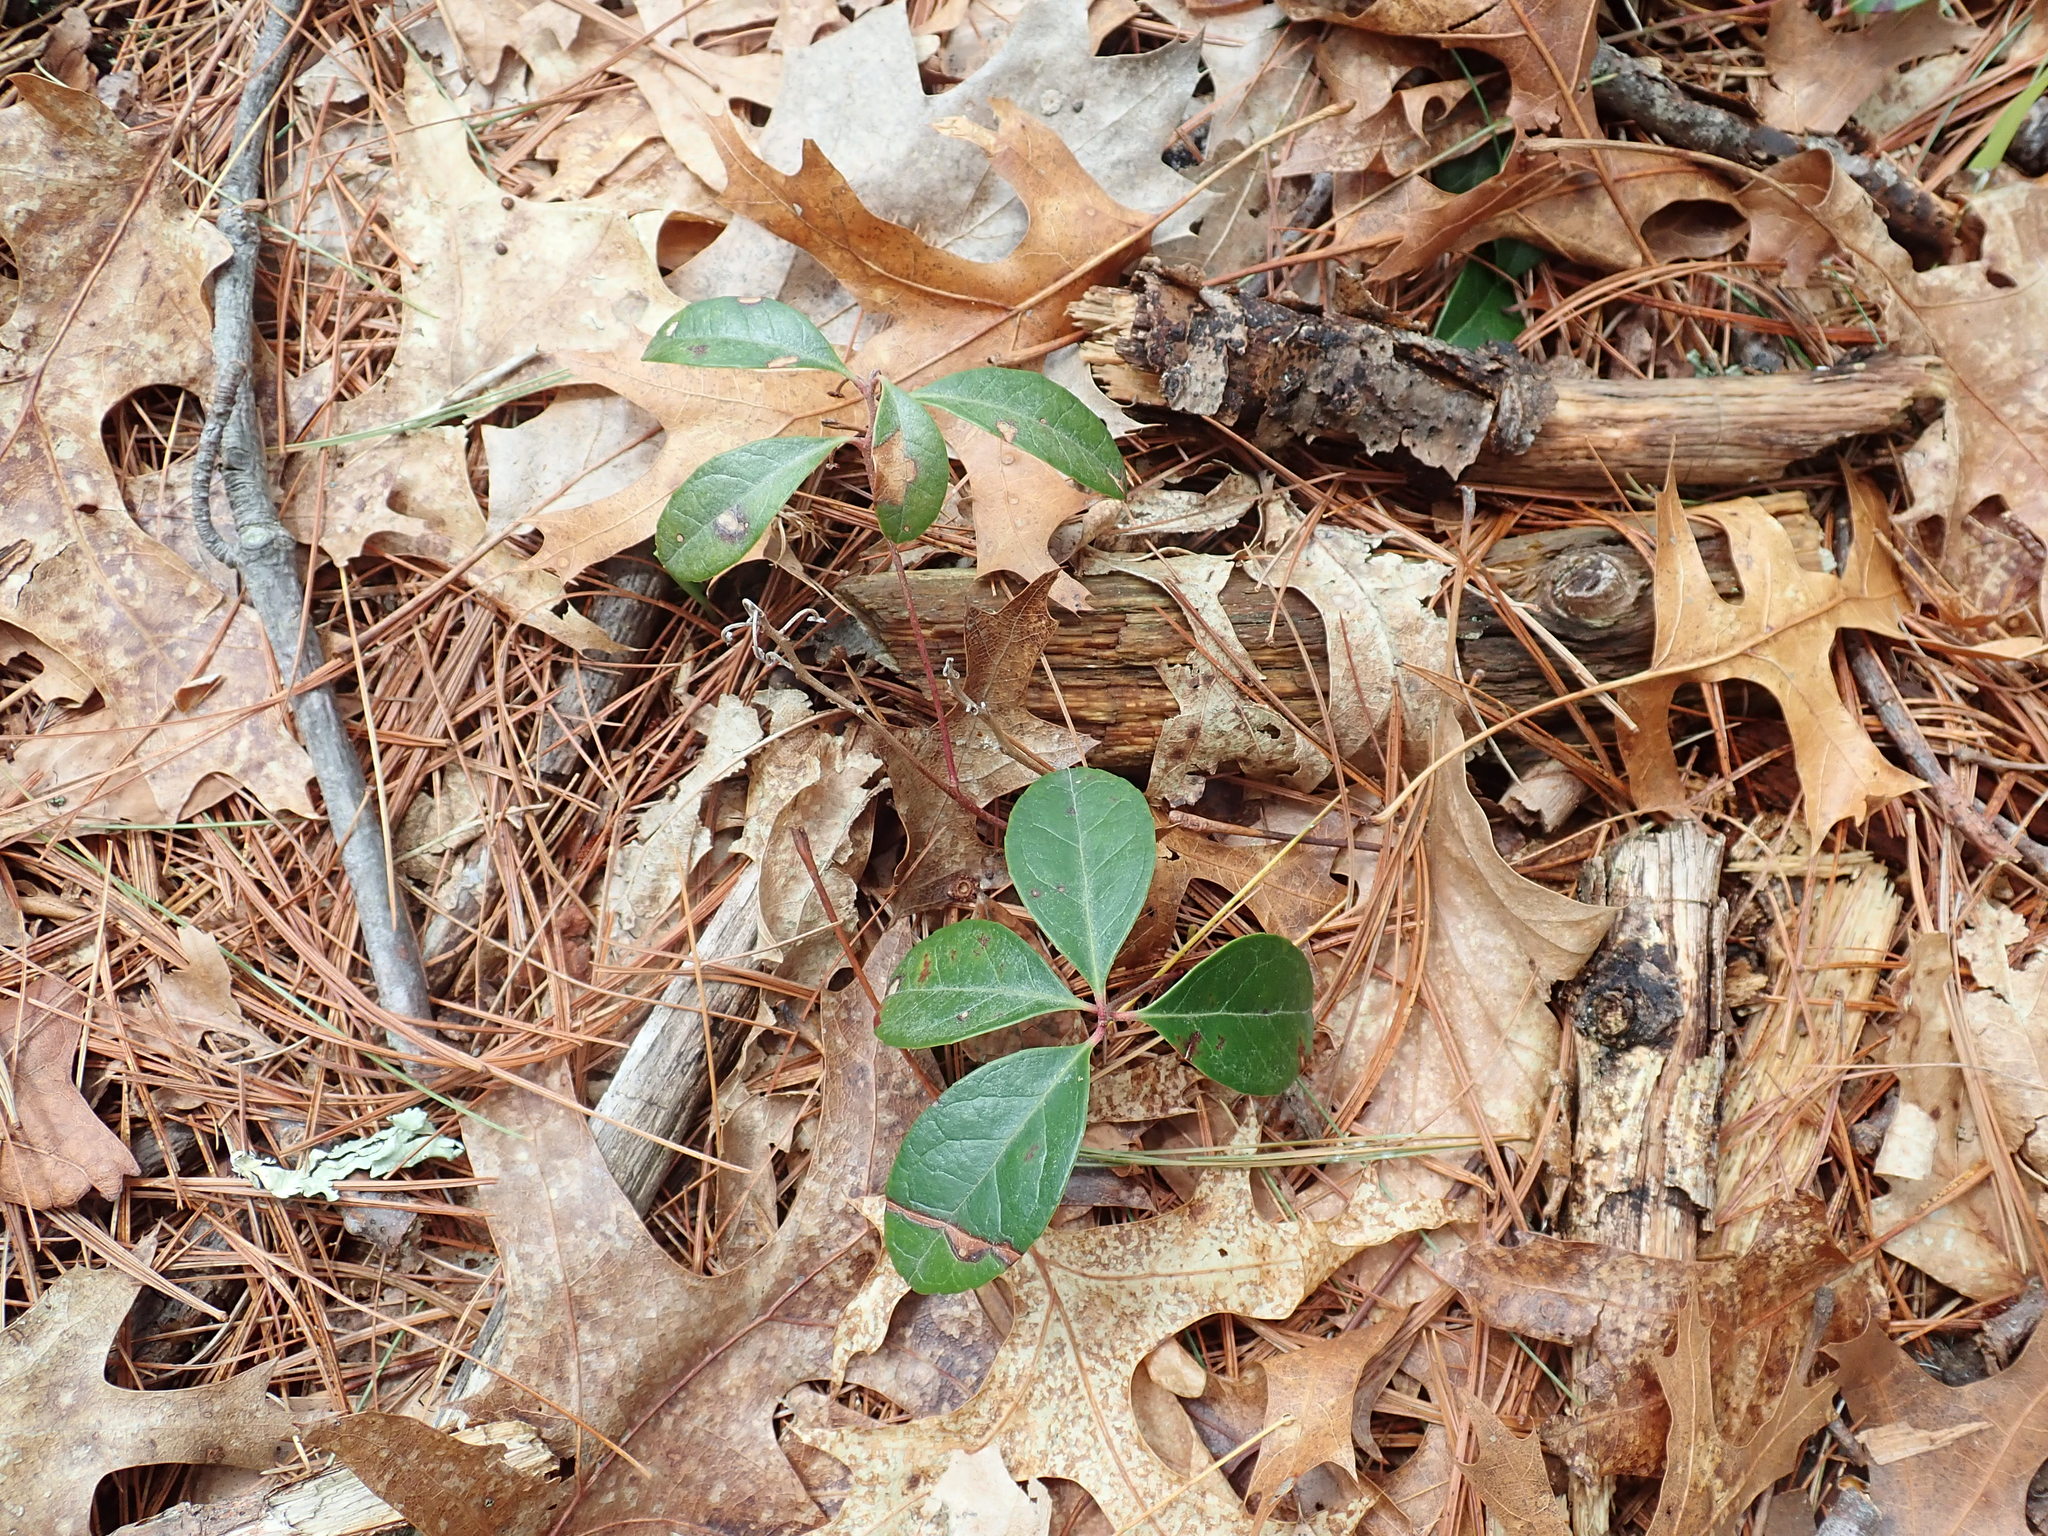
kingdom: Plantae
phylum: Tracheophyta
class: Magnoliopsida
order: Ericales
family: Ericaceae
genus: Gaultheria
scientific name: Gaultheria procumbens
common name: Checkerberry
